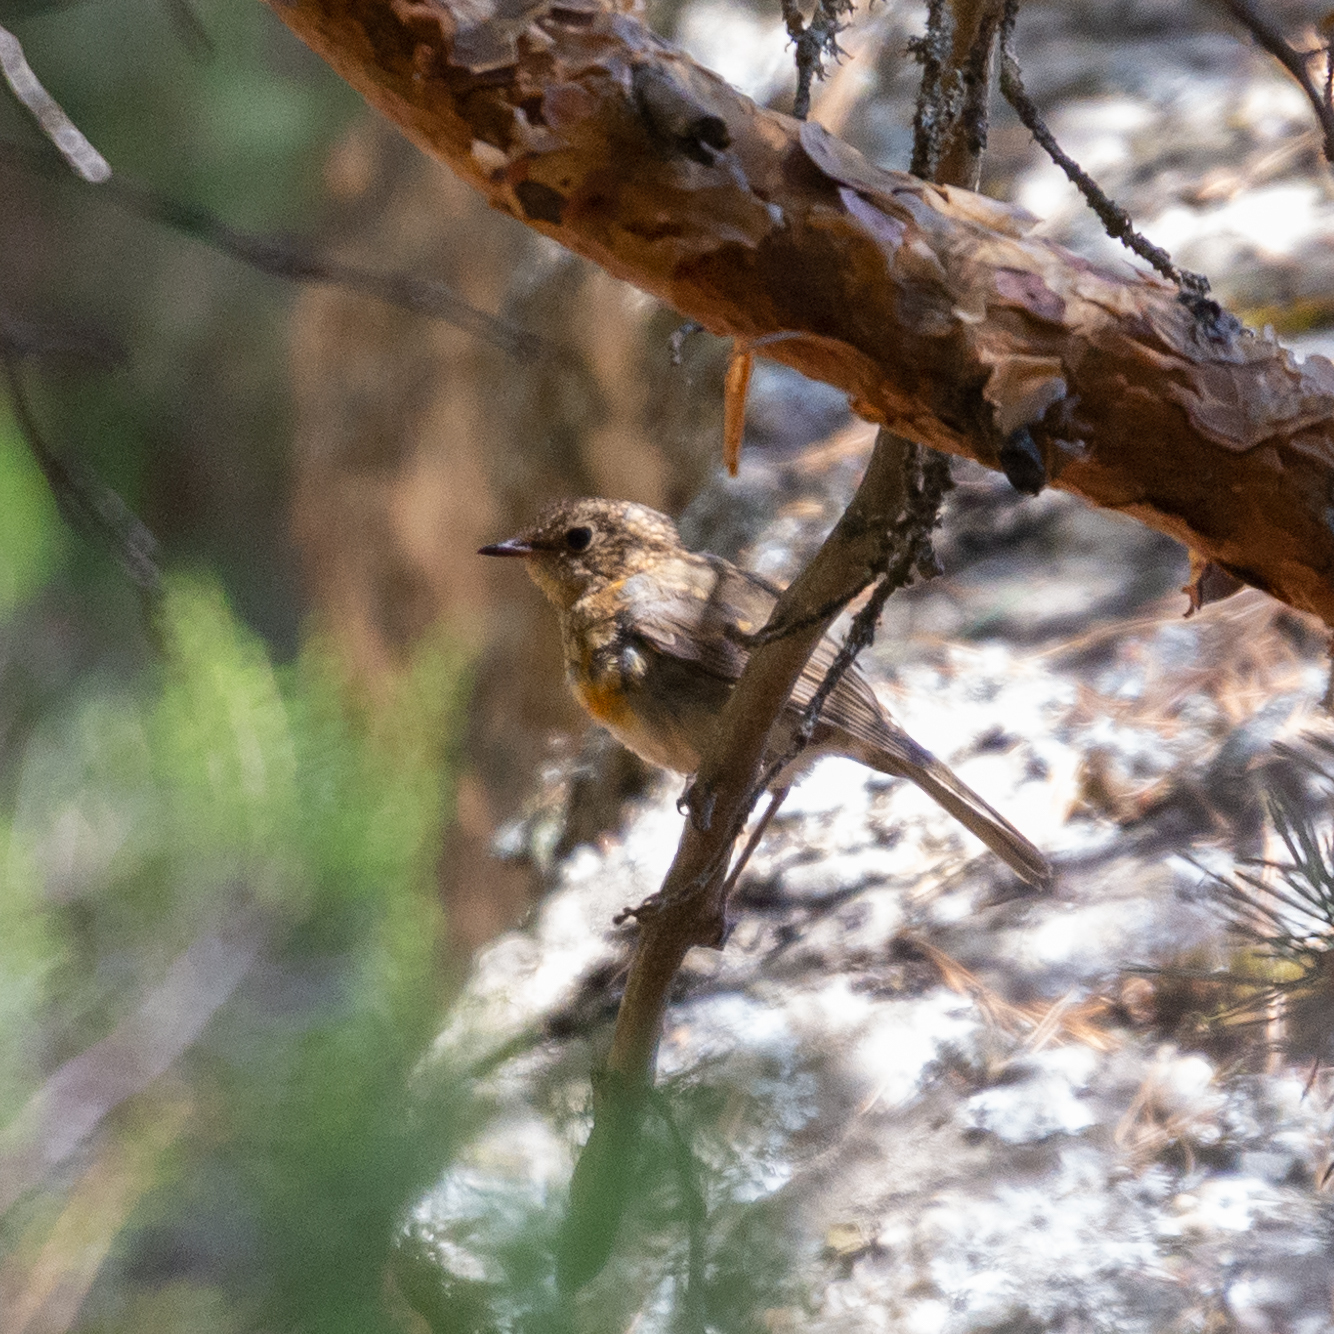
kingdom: Animalia
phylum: Chordata
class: Aves
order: Passeriformes
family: Muscicapidae
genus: Erithacus
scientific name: Erithacus rubecula
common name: European robin
